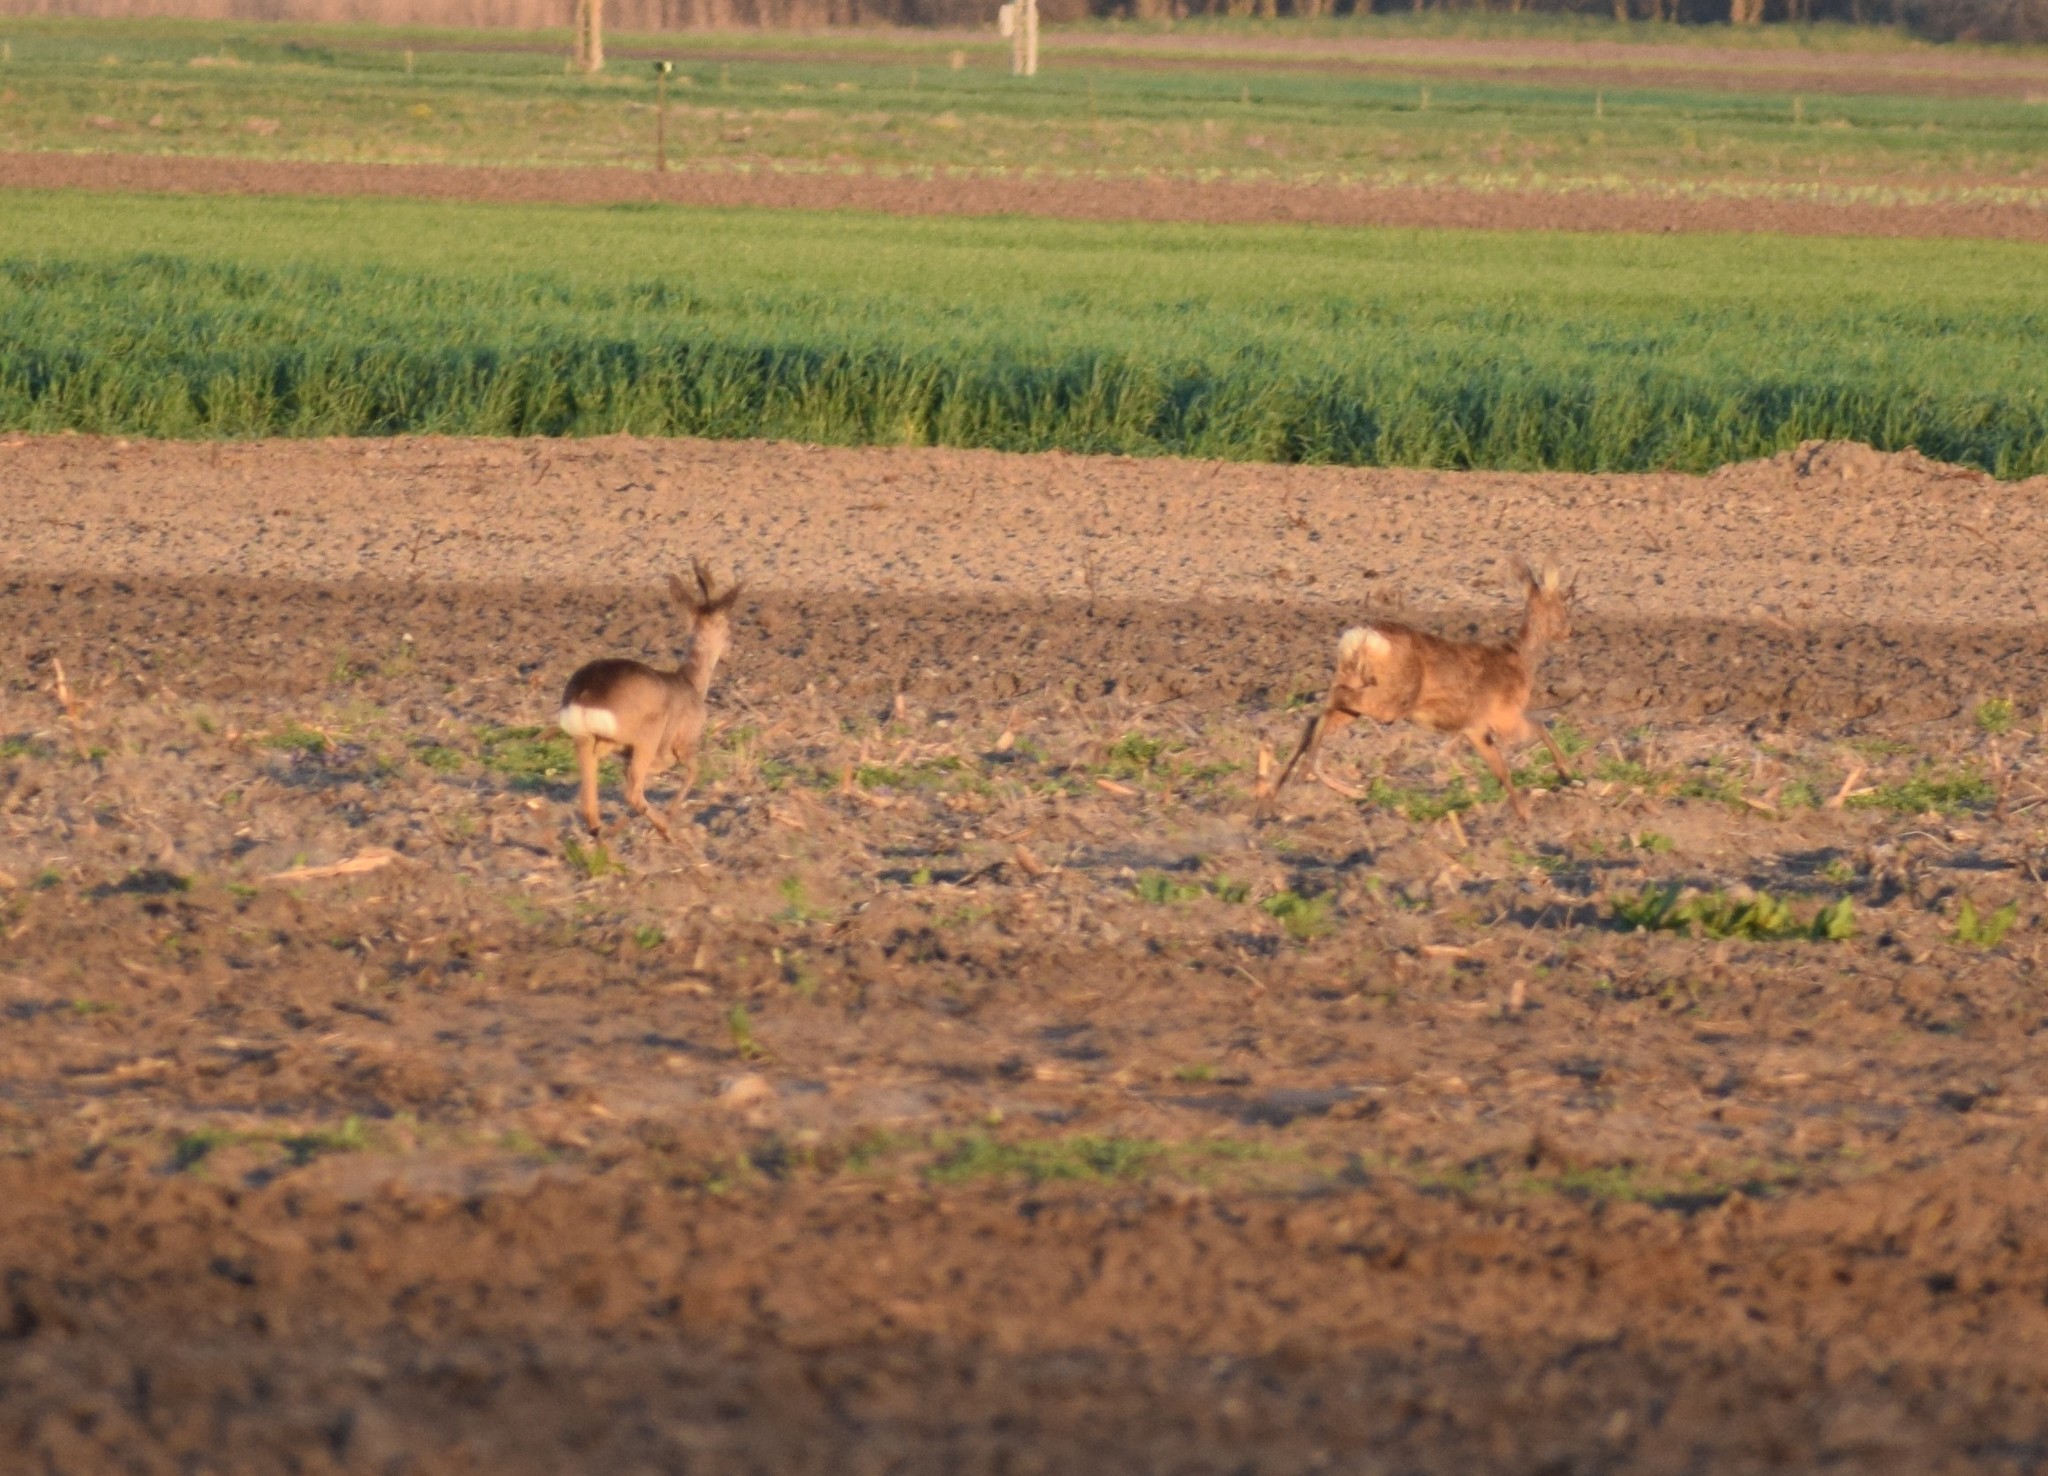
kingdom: Animalia
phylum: Chordata
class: Mammalia
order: Artiodactyla
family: Cervidae
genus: Capreolus
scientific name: Capreolus capreolus
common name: Western roe deer
